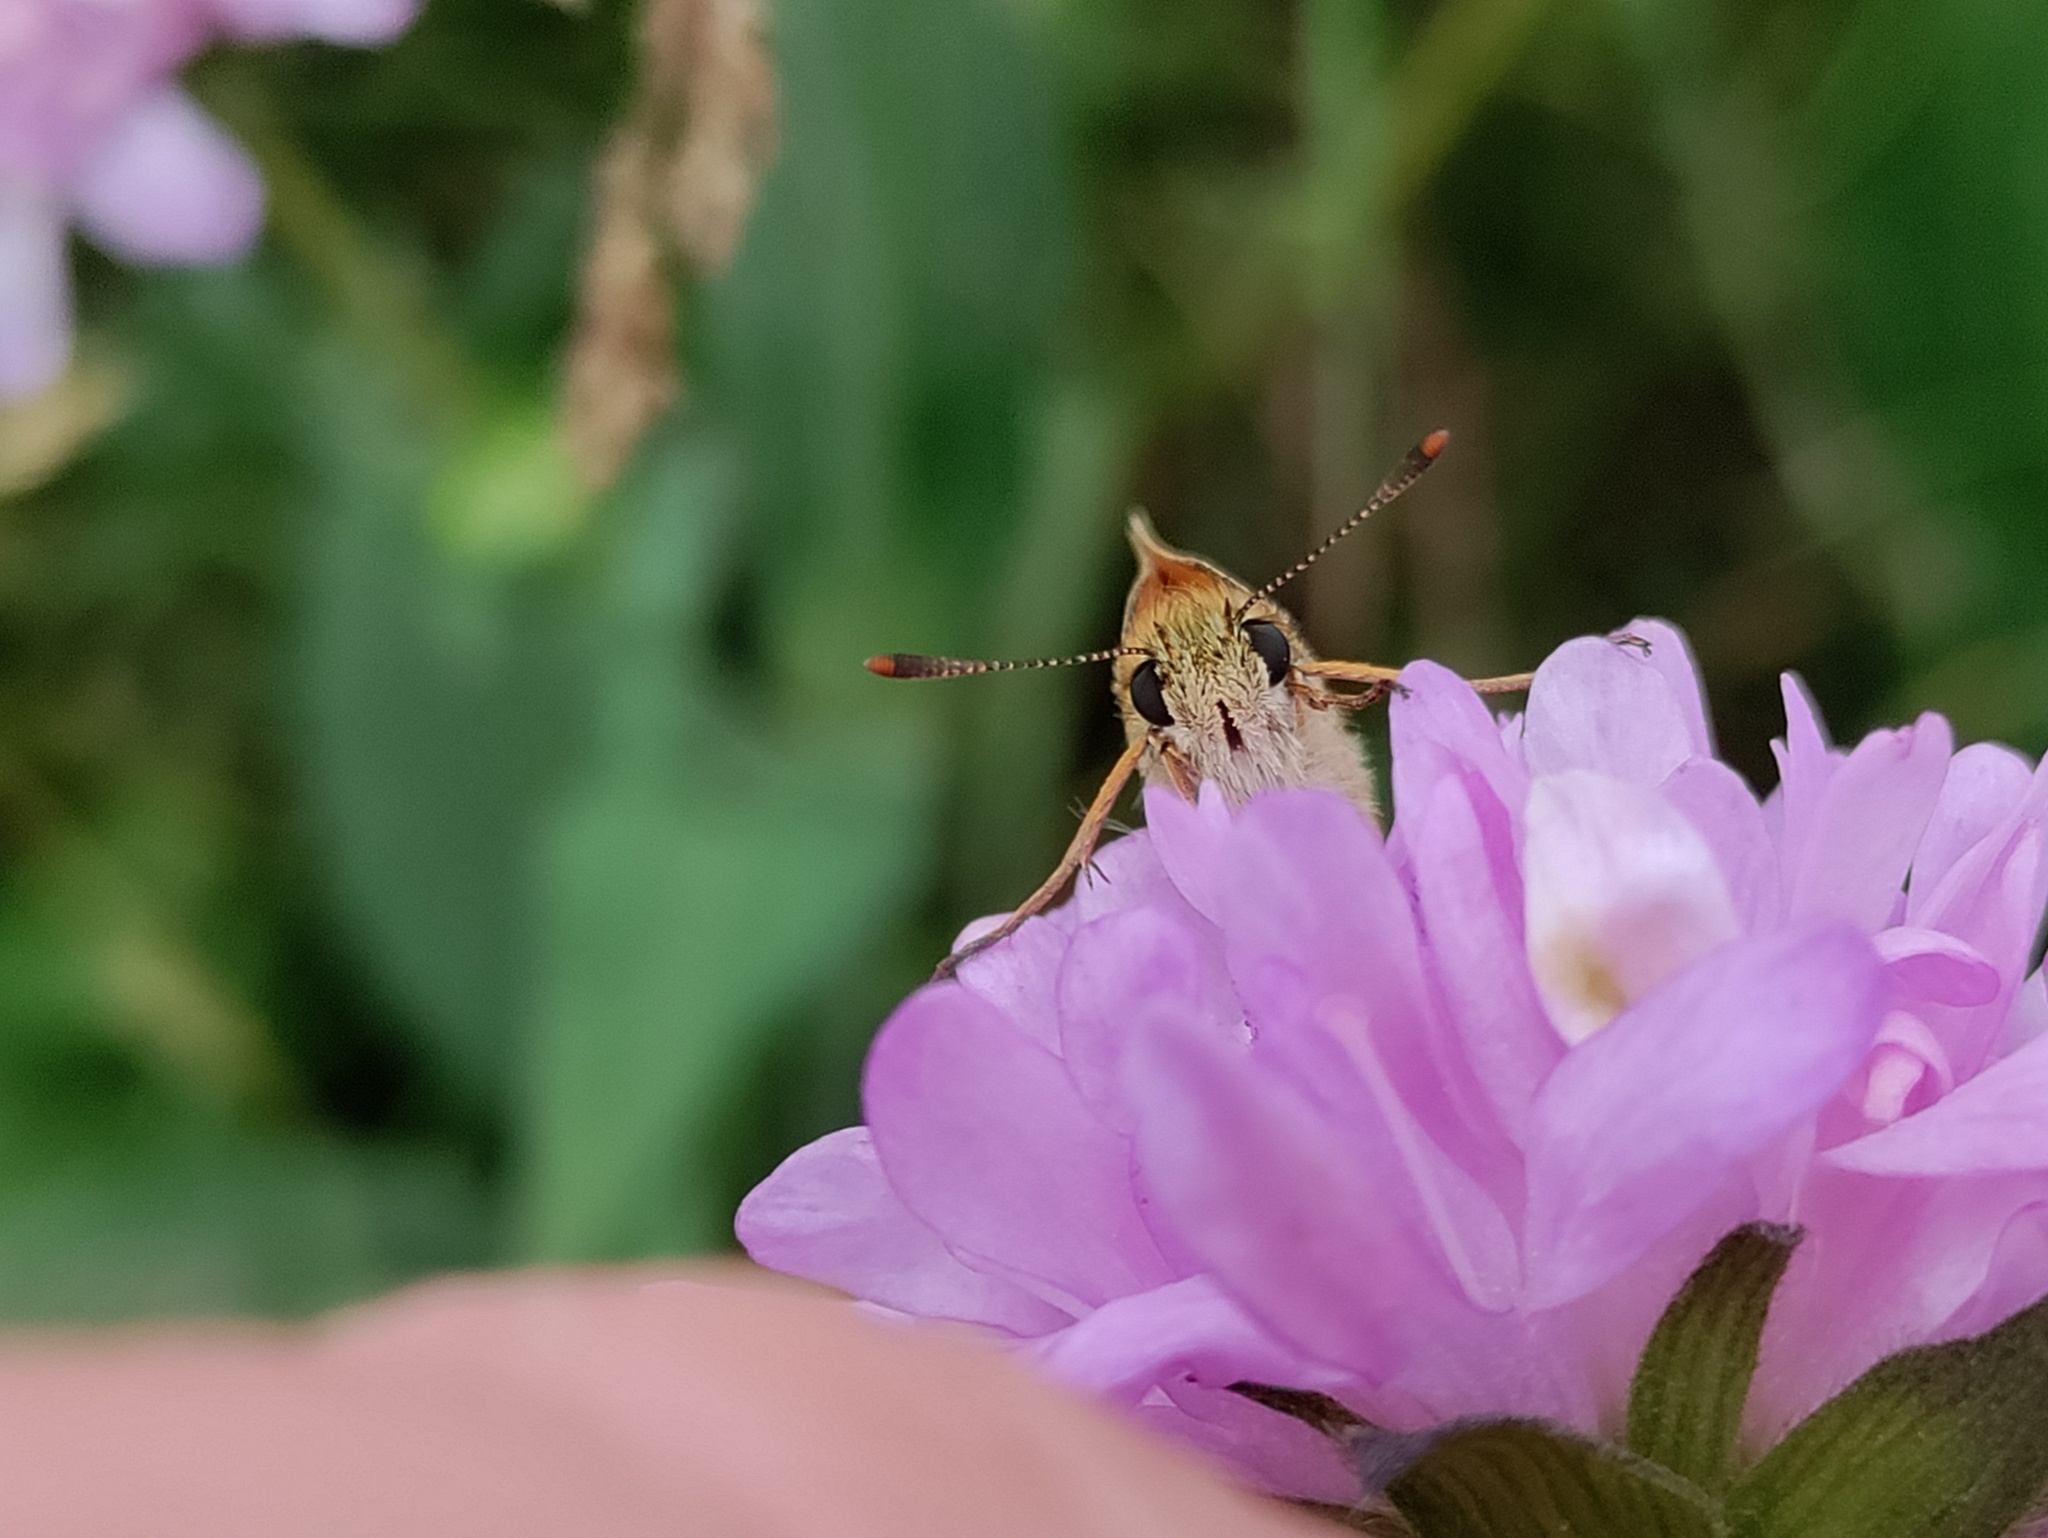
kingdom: Animalia
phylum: Arthropoda
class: Insecta
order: Lepidoptera
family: Hesperiidae
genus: Thymelicus
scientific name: Thymelicus sylvestris
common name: Small skipper
